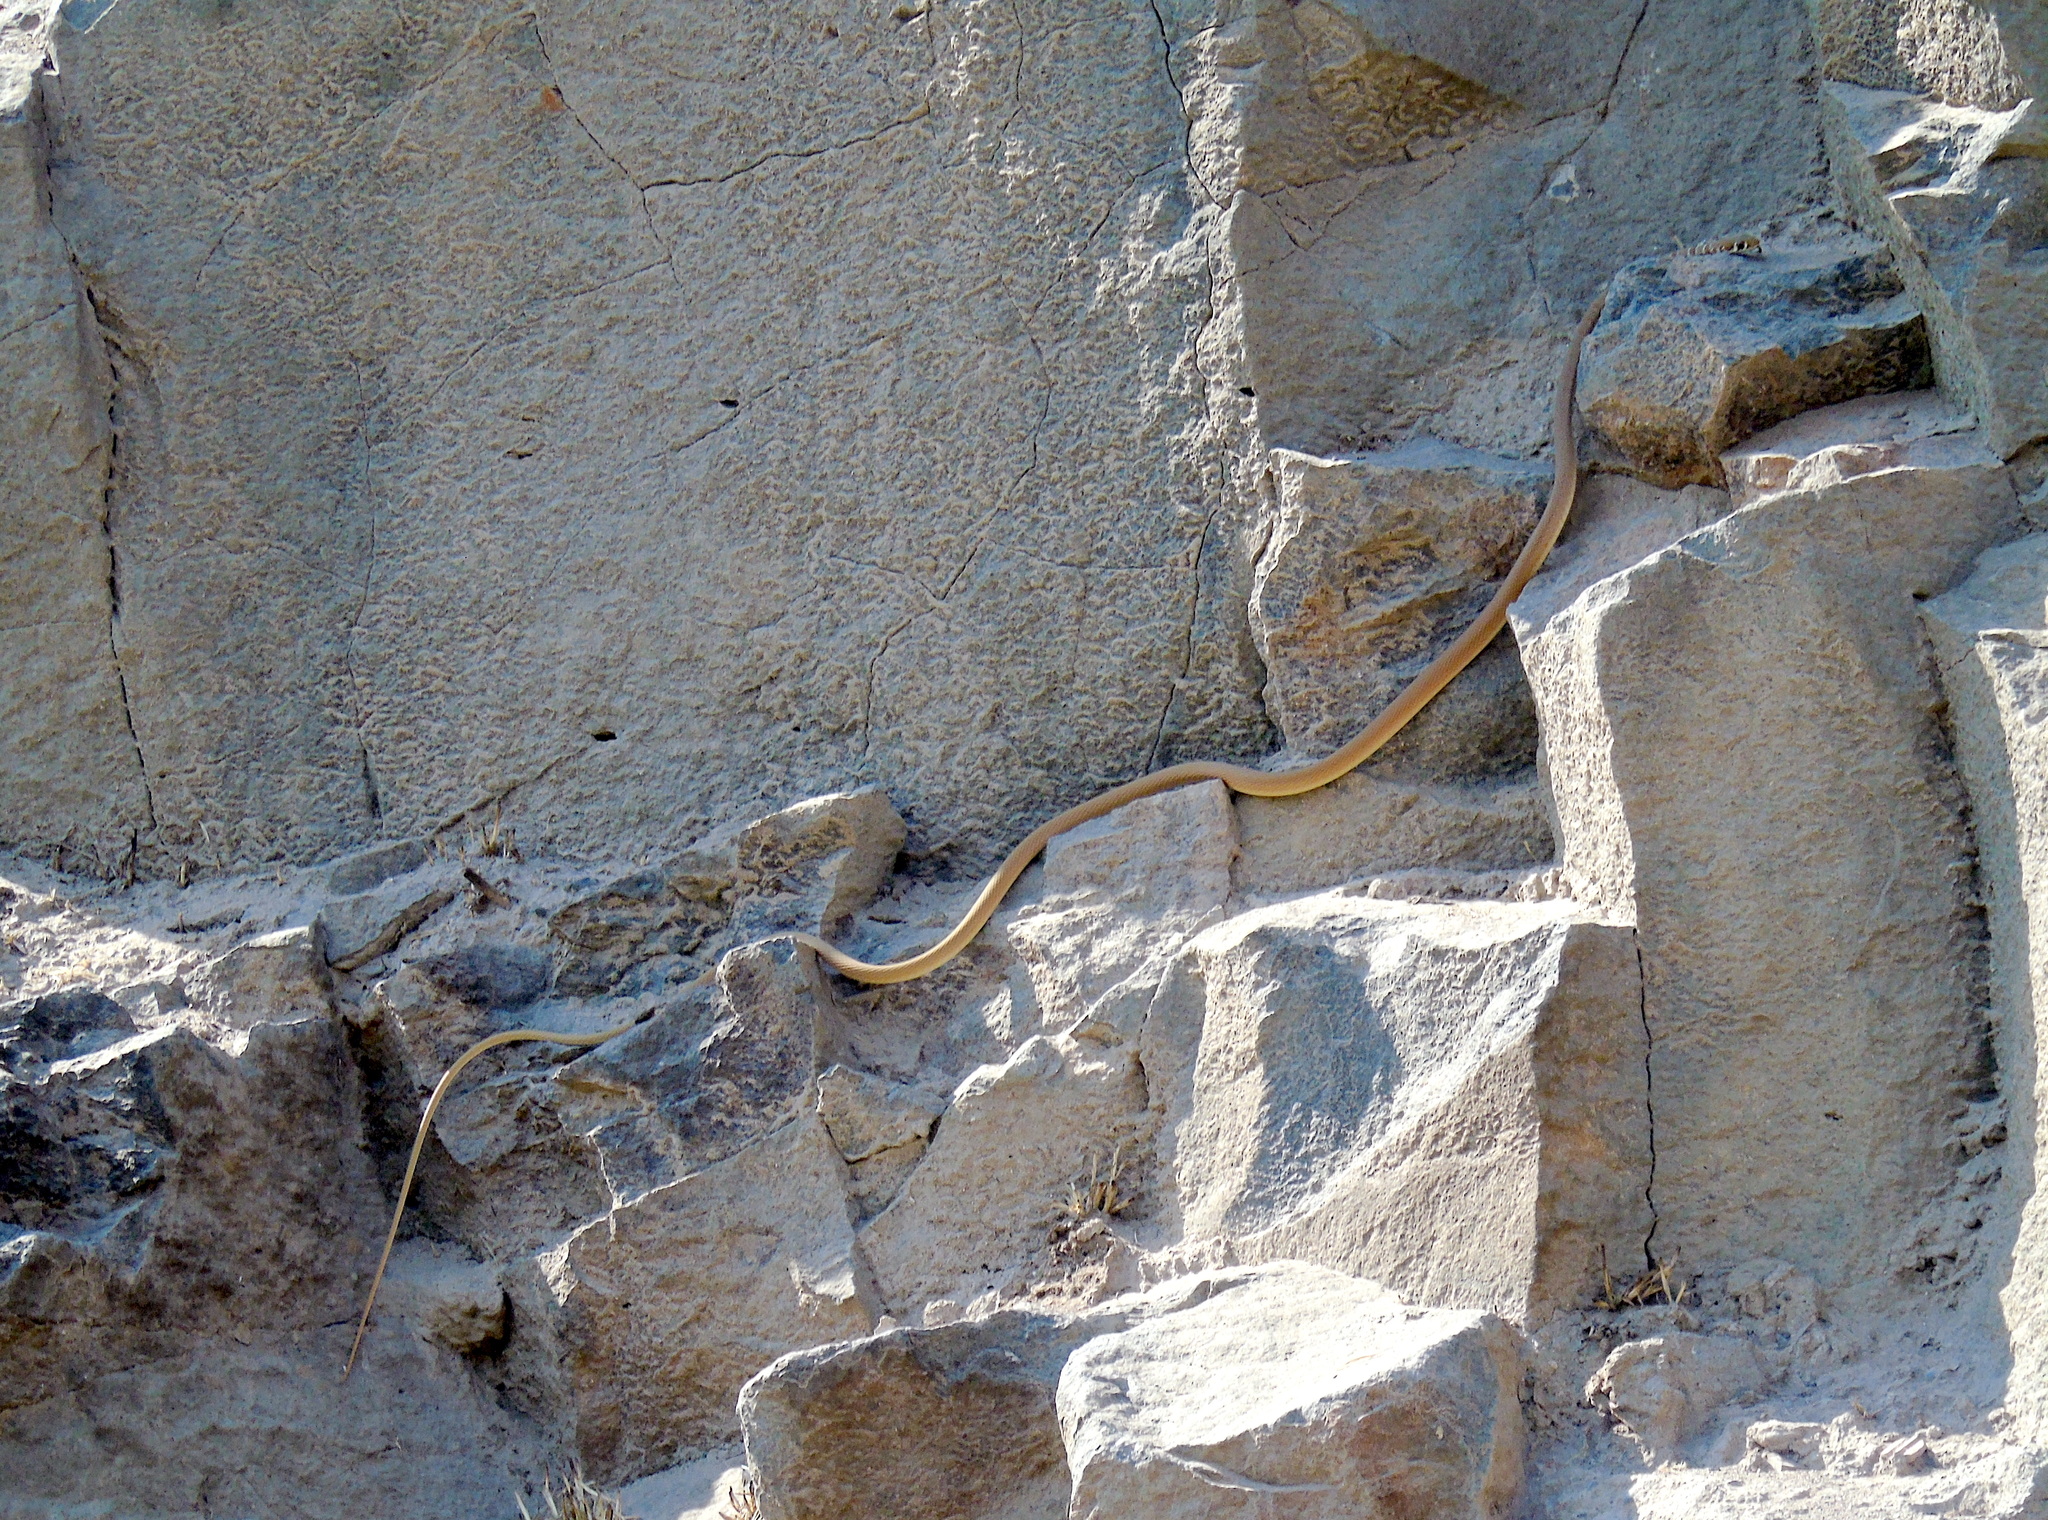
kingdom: Animalia
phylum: Chordata
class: Squamata
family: Colubridae
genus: Platyceps
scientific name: Platyceps najadum
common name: Dahl's whip snake
